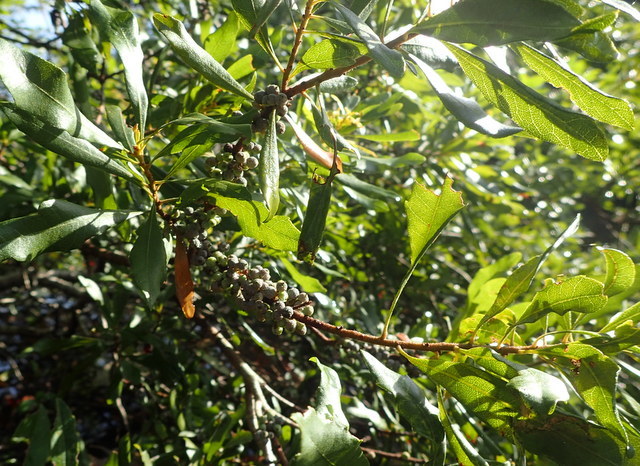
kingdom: Plantae
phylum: Tracheophyta
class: Magnoliopsida
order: Fagales
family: Myricaceae
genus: Morella
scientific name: Morella cerifera
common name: Wax myrtle
